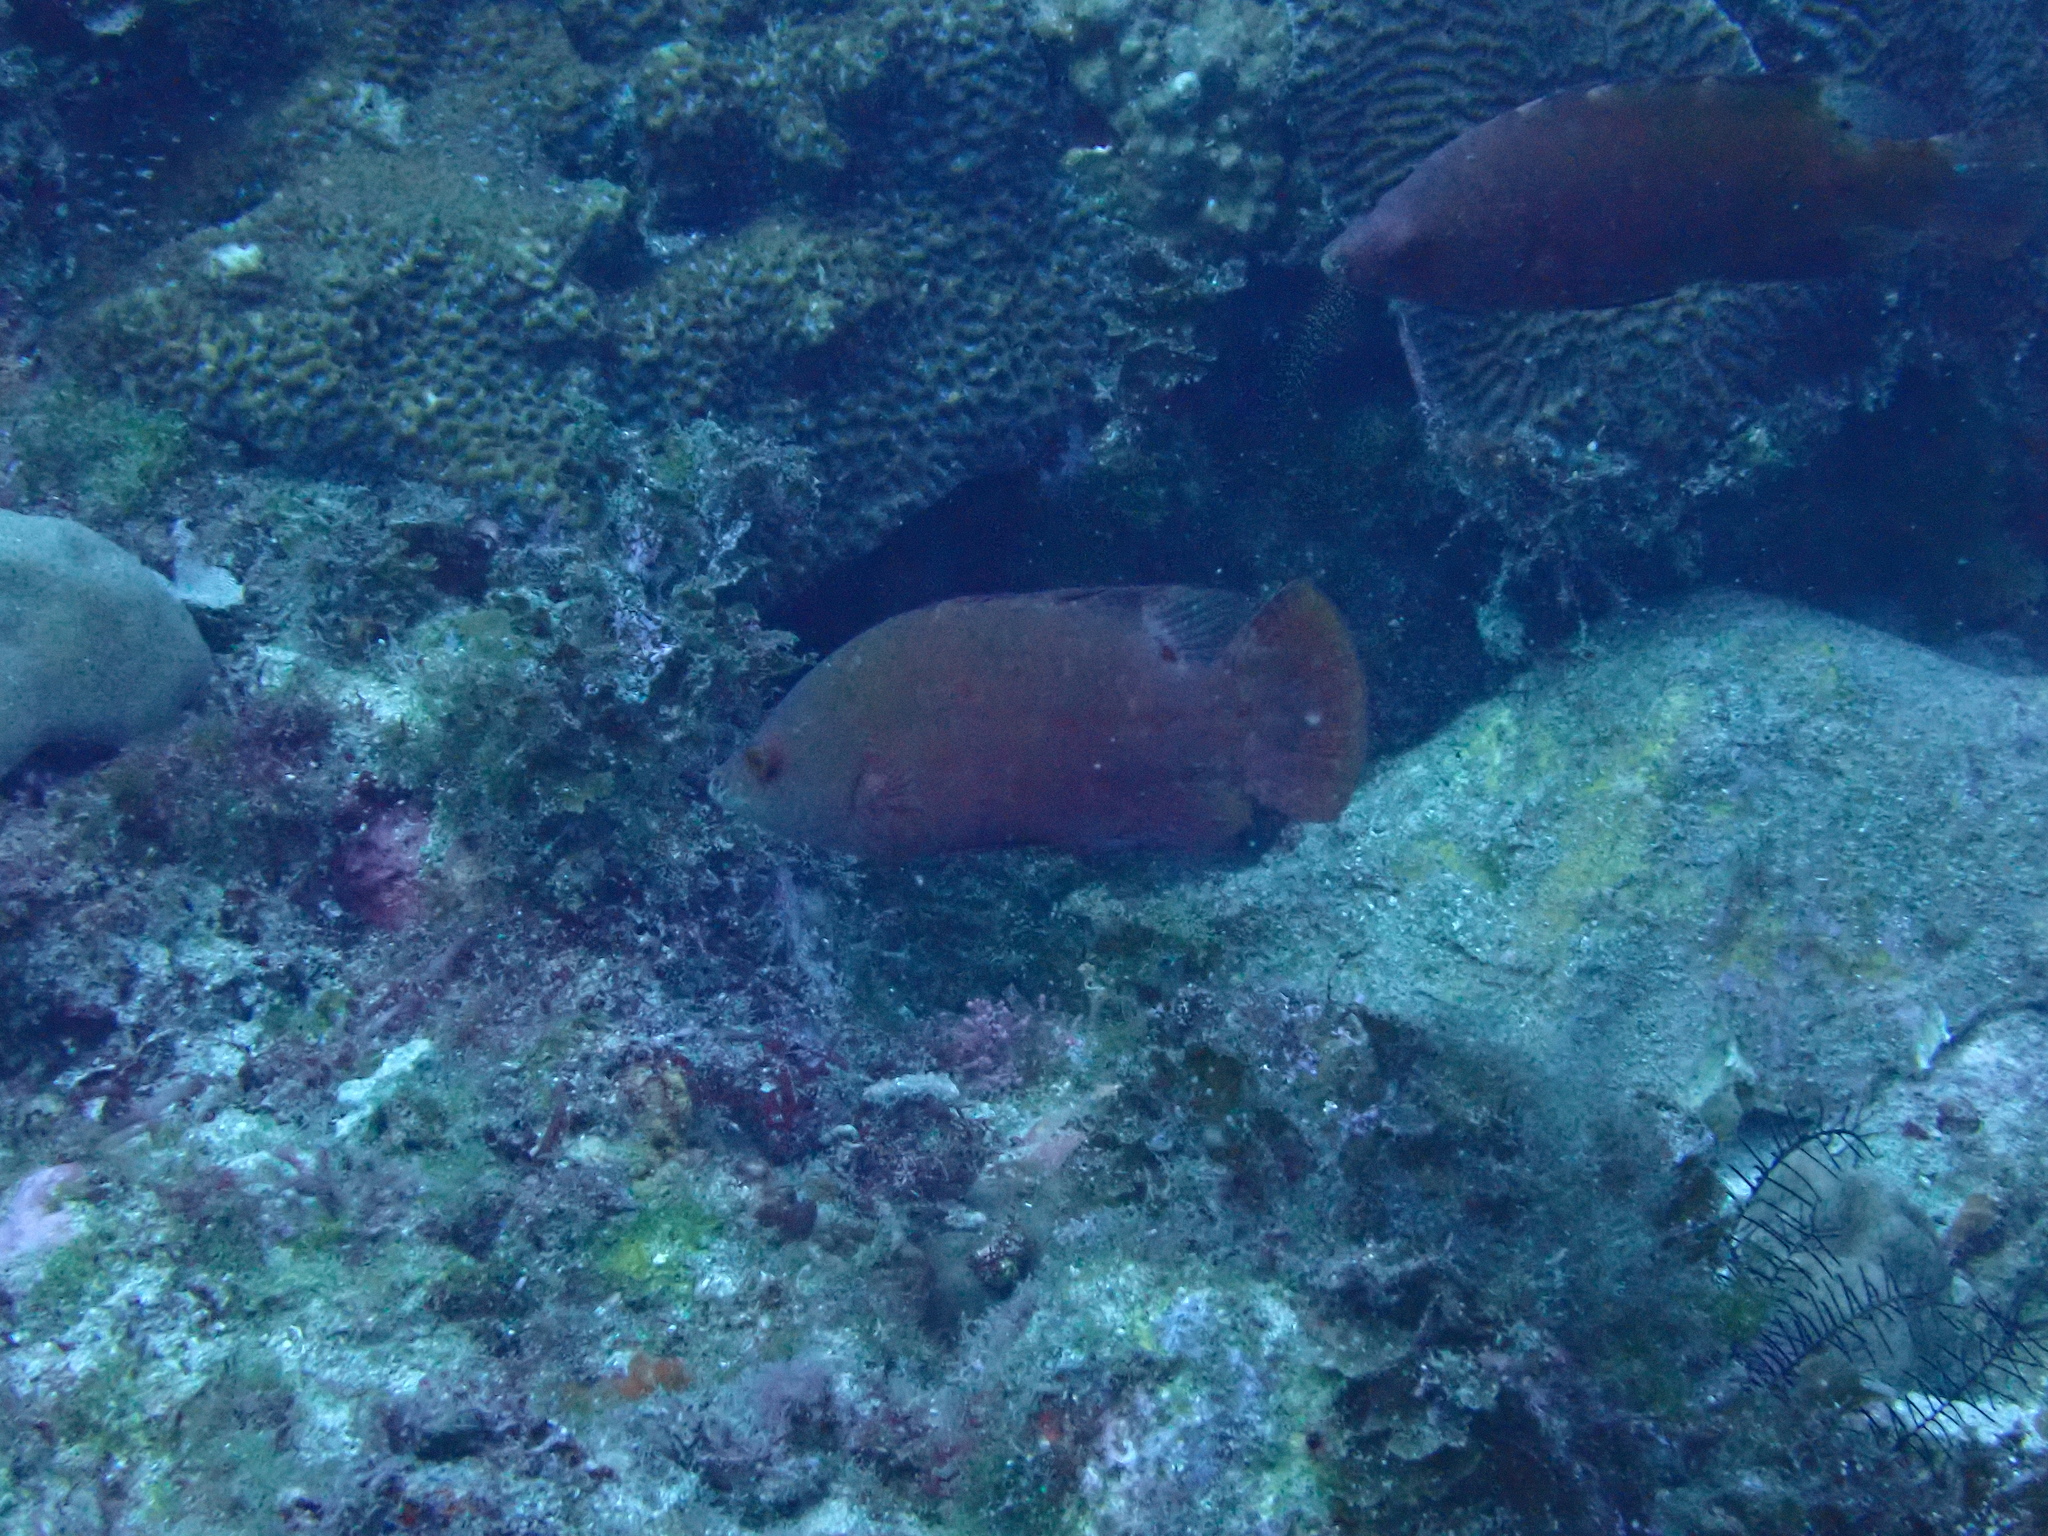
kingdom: Animalia
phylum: Chordata
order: Perciformes
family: Labridae
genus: Cheilinus
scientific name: Cheilinus oxycephalus
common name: Snooty wrasse
